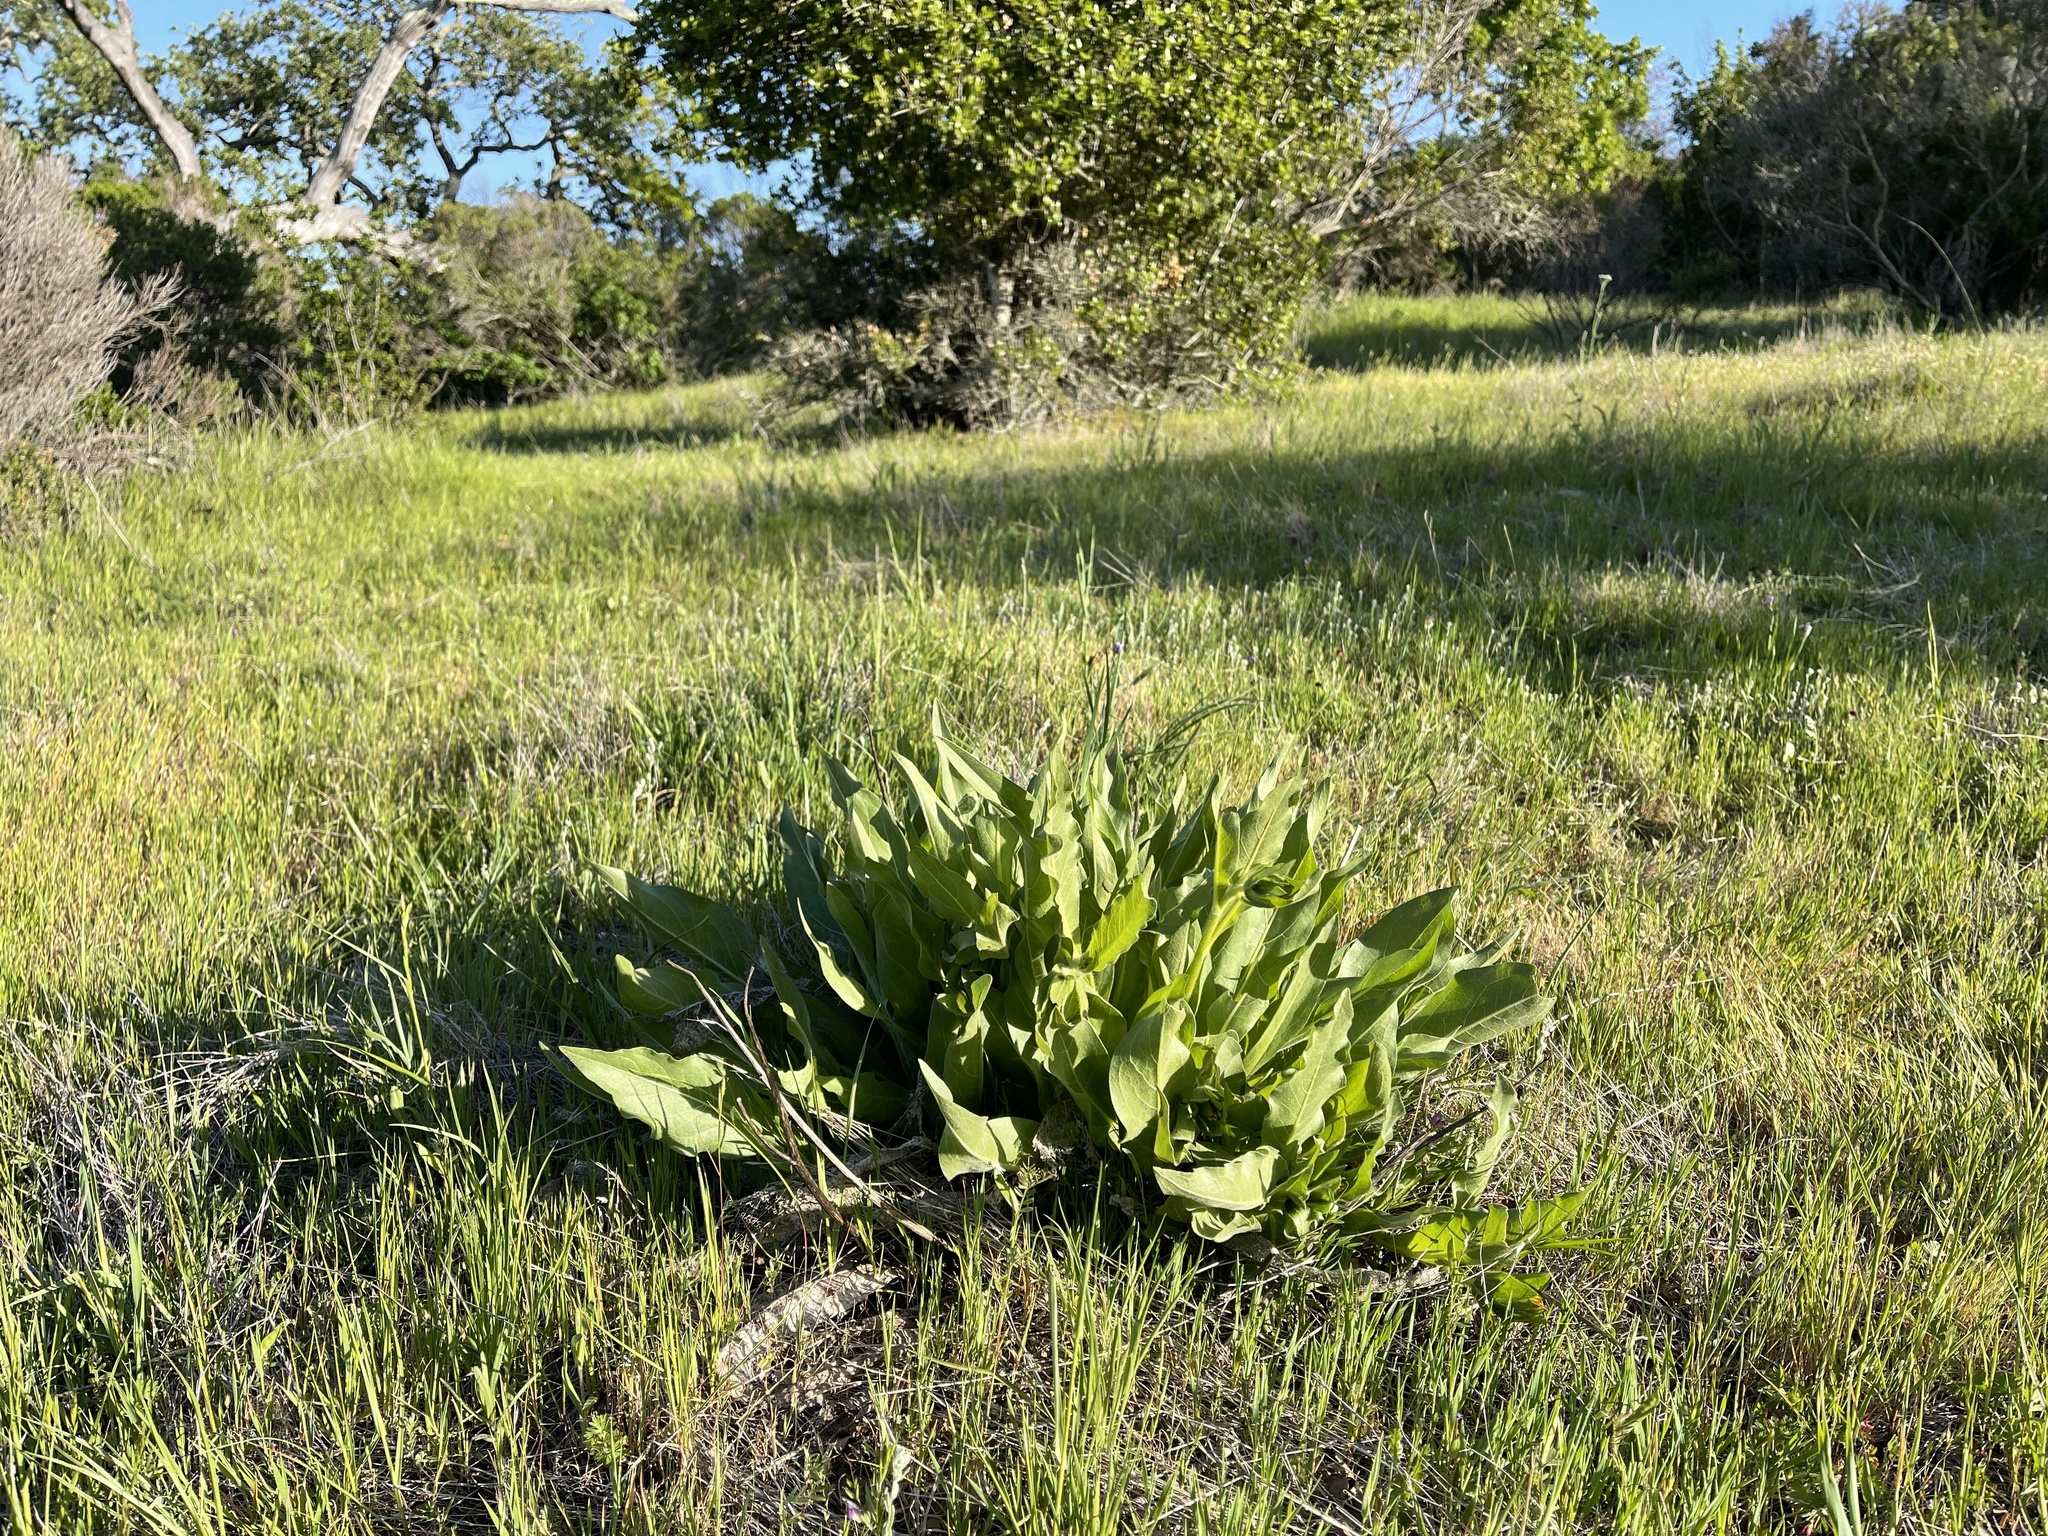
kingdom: Plantae
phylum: Tracheophyta
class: Magnoliopsida
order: Asterales
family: Asteraceae
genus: Wyethia
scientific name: Wyethia glabra
